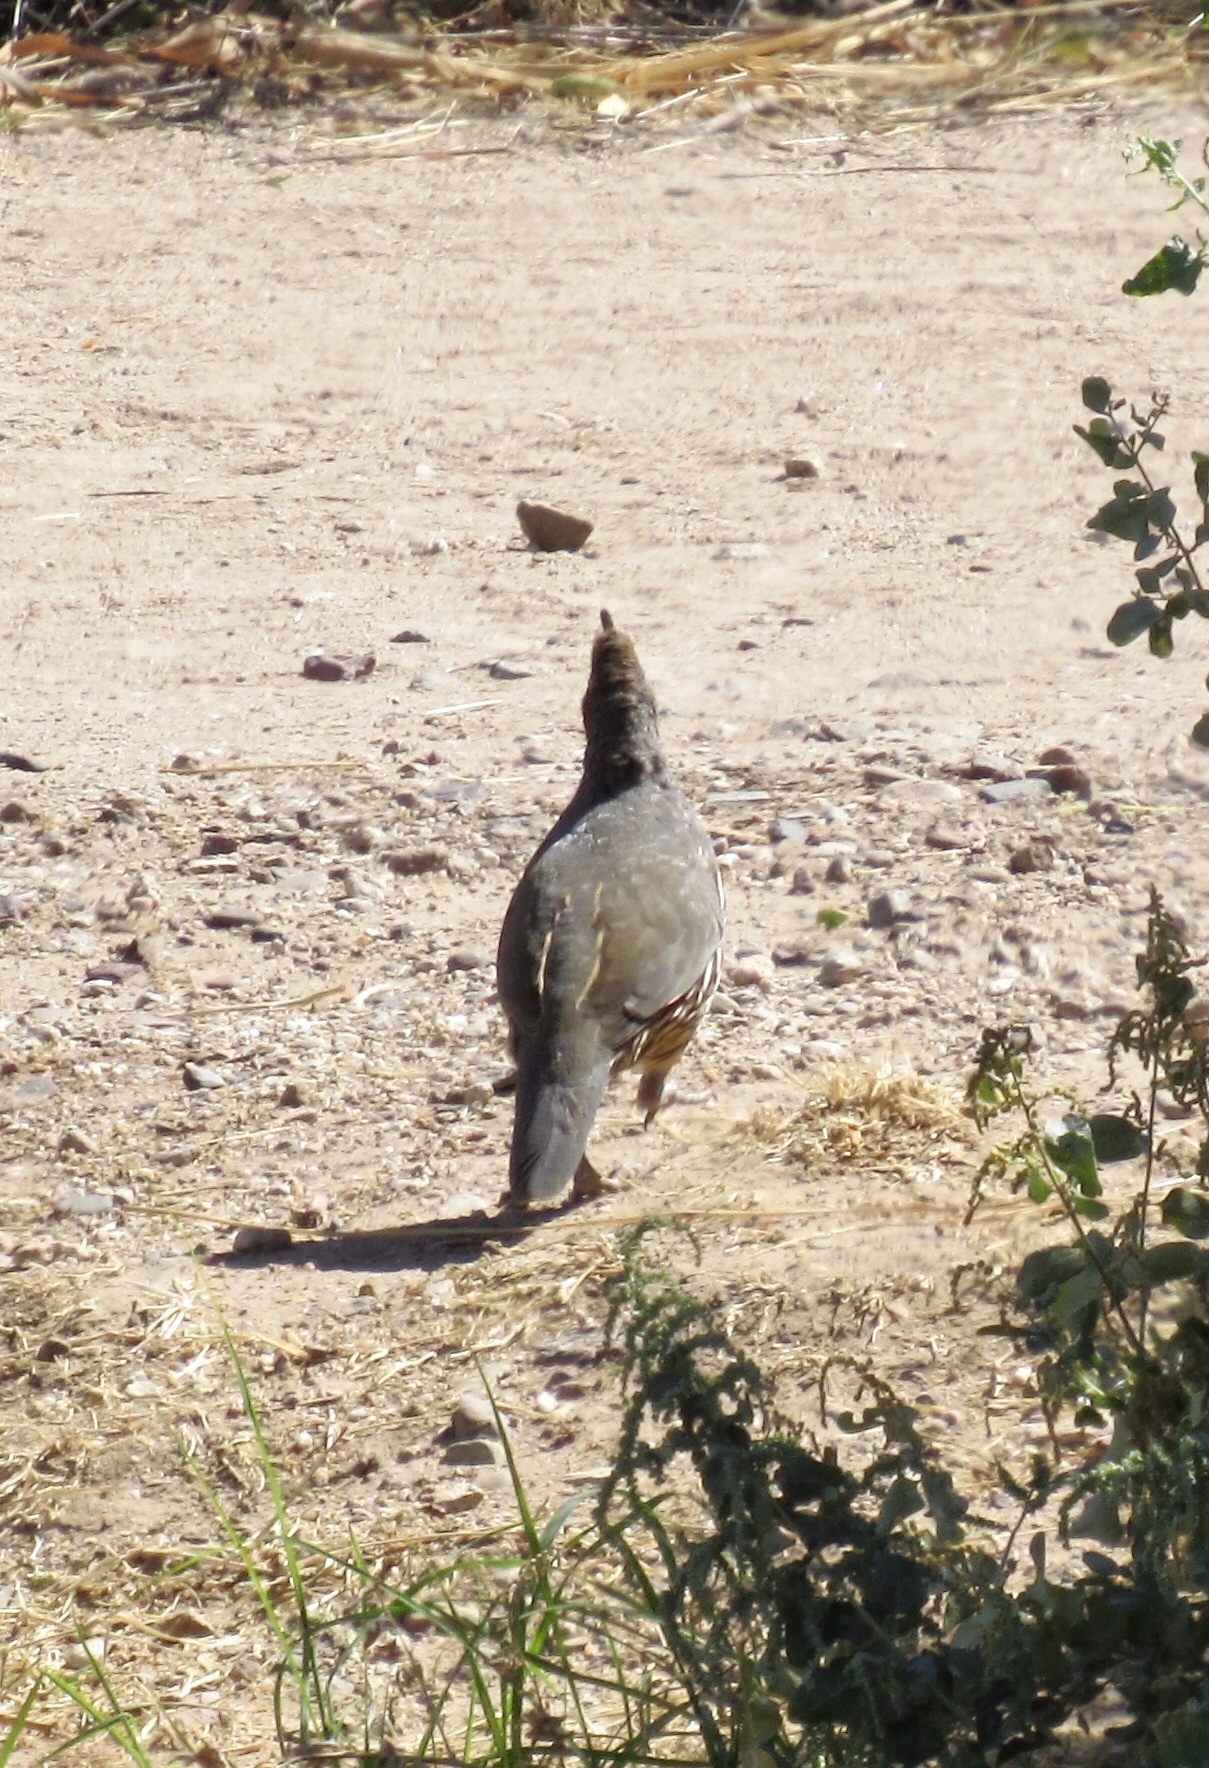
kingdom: Animalia
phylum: Chordata
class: Aves
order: Galliformes
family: Odontophoridae
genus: Callipepla
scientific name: Callipepla gambelii
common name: Gambel's quail
